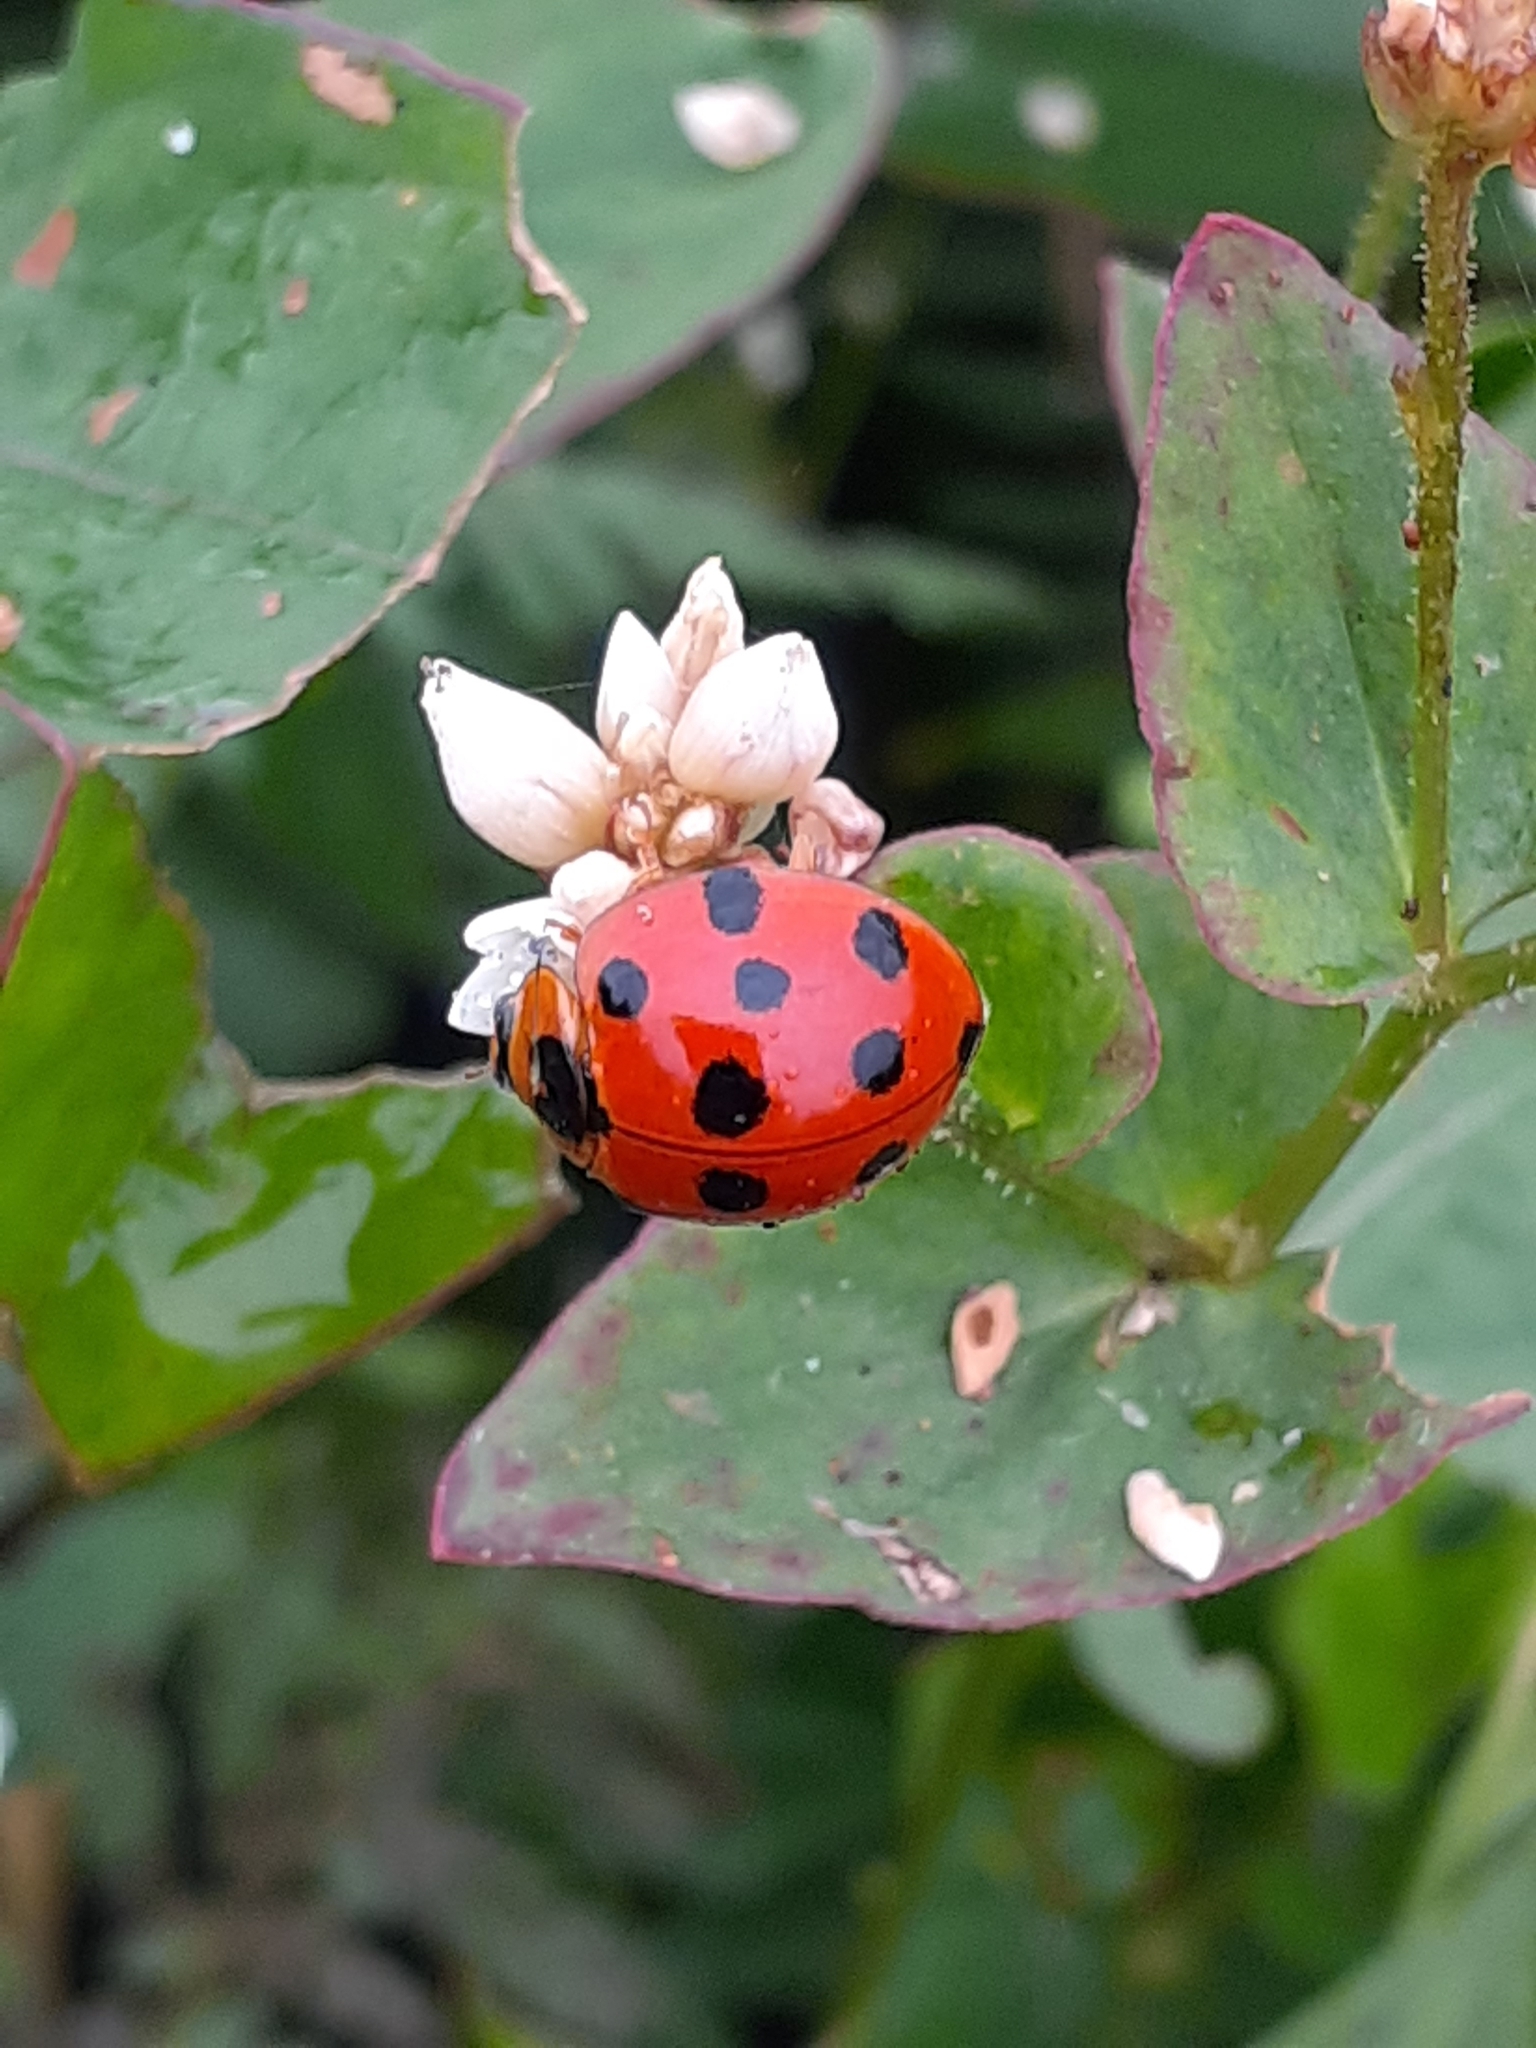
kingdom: Animalia
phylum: Arthropoda
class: Insecta
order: Coleoptera
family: Coccinellidae
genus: Harmonia
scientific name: Harmonia dimidiata
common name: Ladybird beetle
